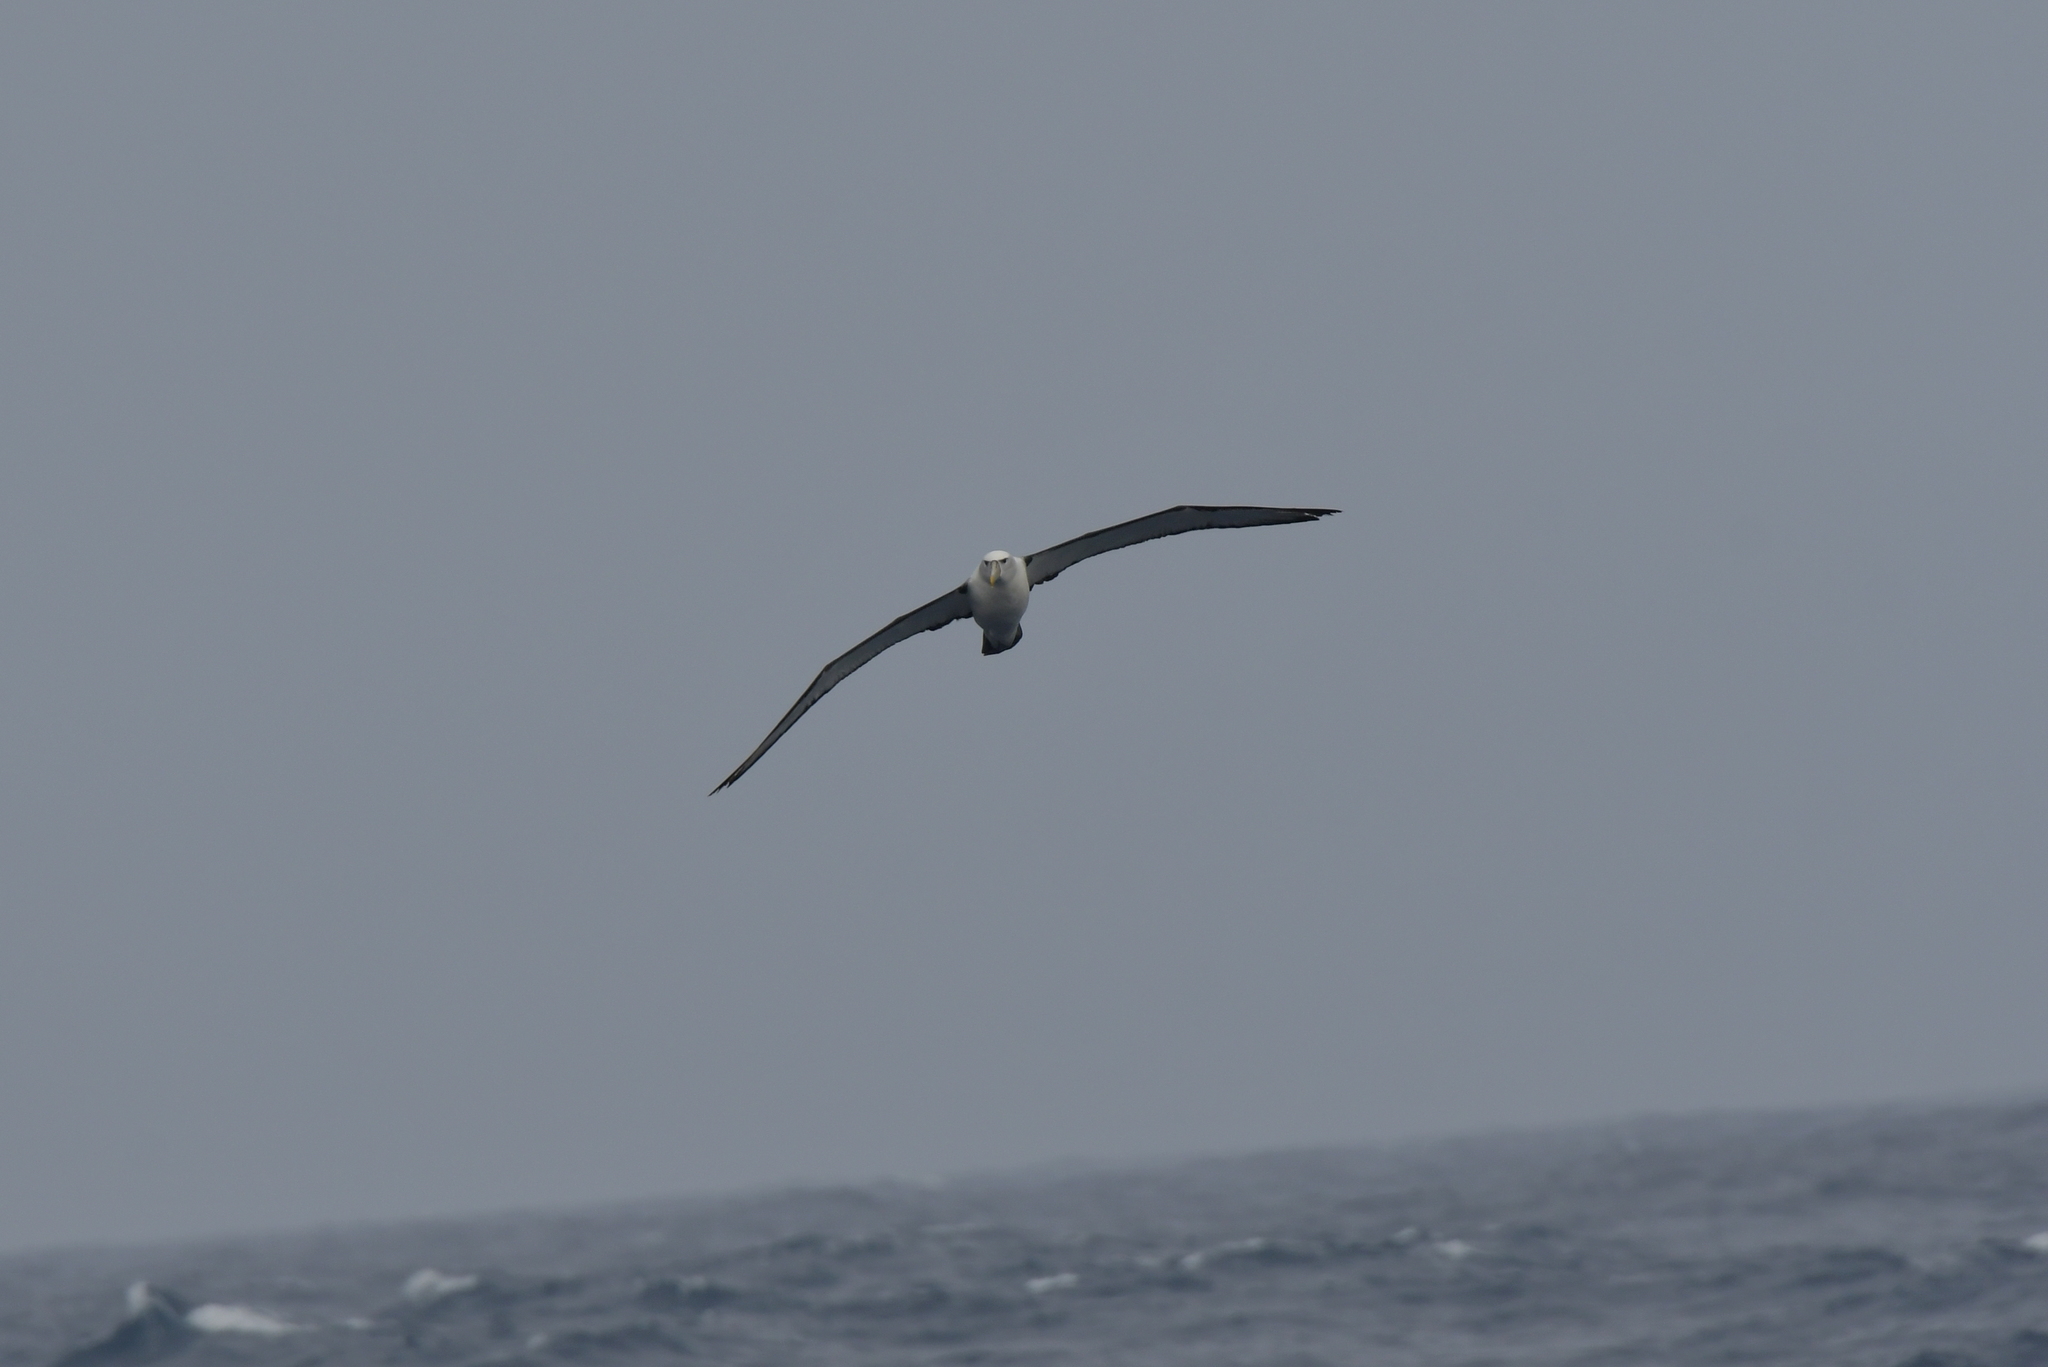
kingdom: Animalia
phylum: Chordata
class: Aves
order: Procellariiformes
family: Diomedeidae
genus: Thalassarche
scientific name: Thalassarche cauta
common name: Shy albatross
